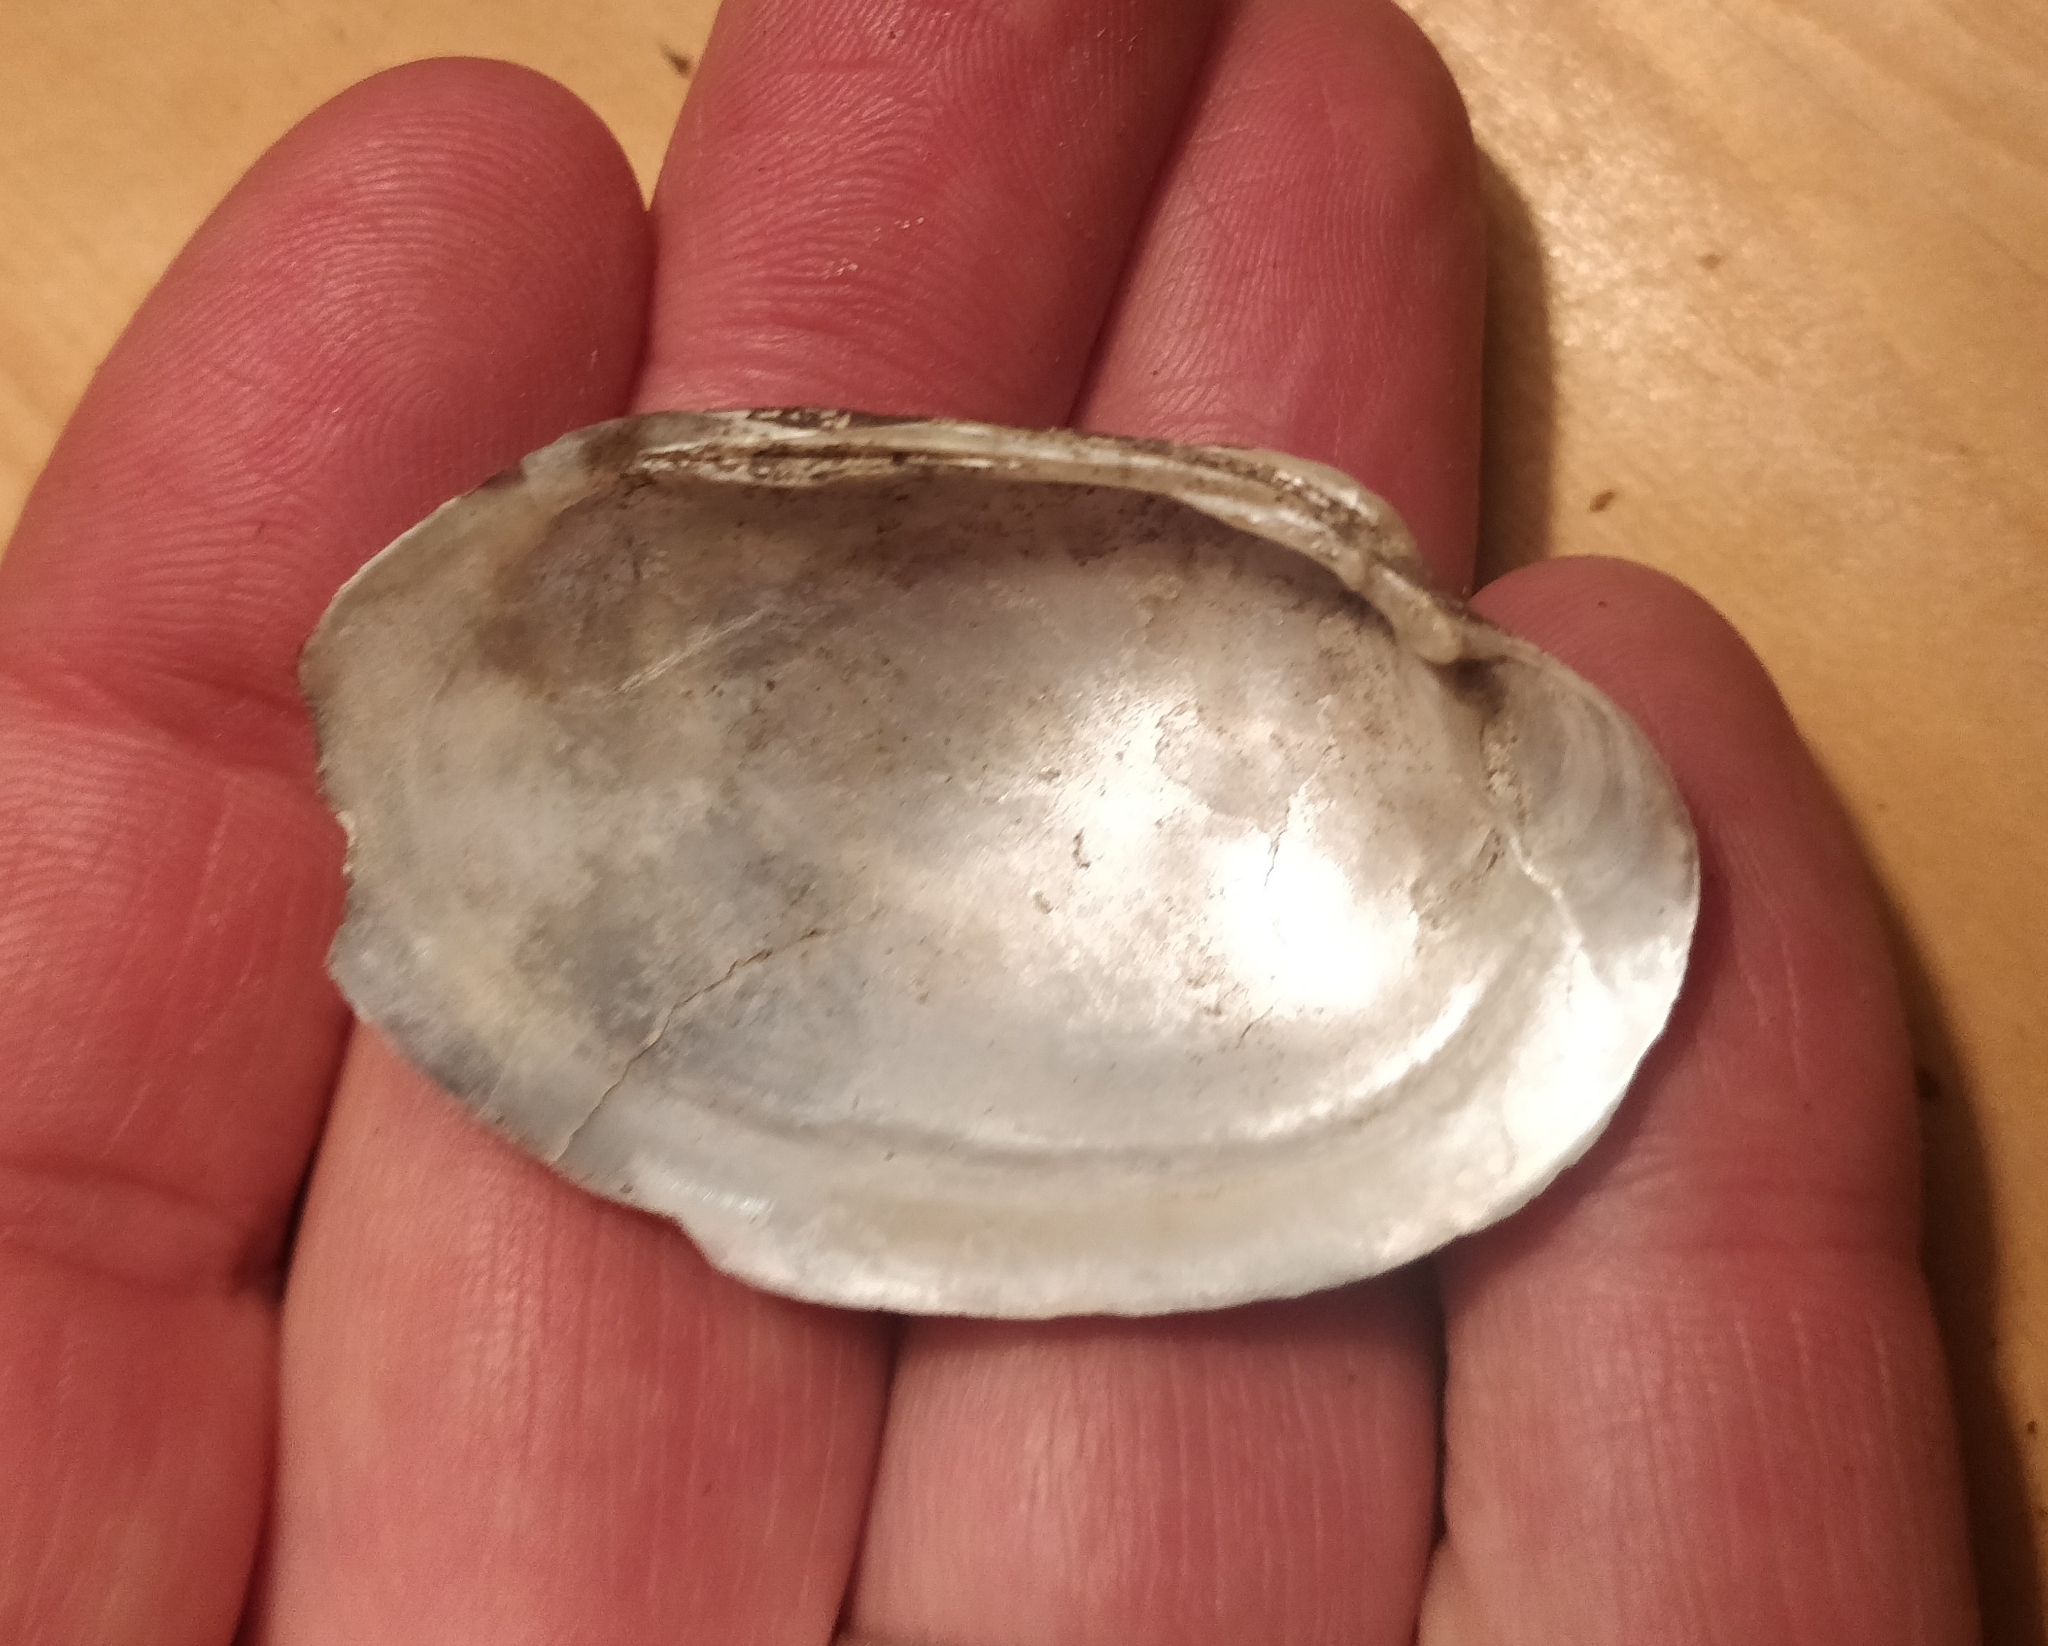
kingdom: Animalia
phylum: Mollusca
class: Bivalvia
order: Unionida
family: Unionidae
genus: Lampsilis
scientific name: Lampsilis cardium
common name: Plain pocketbook
